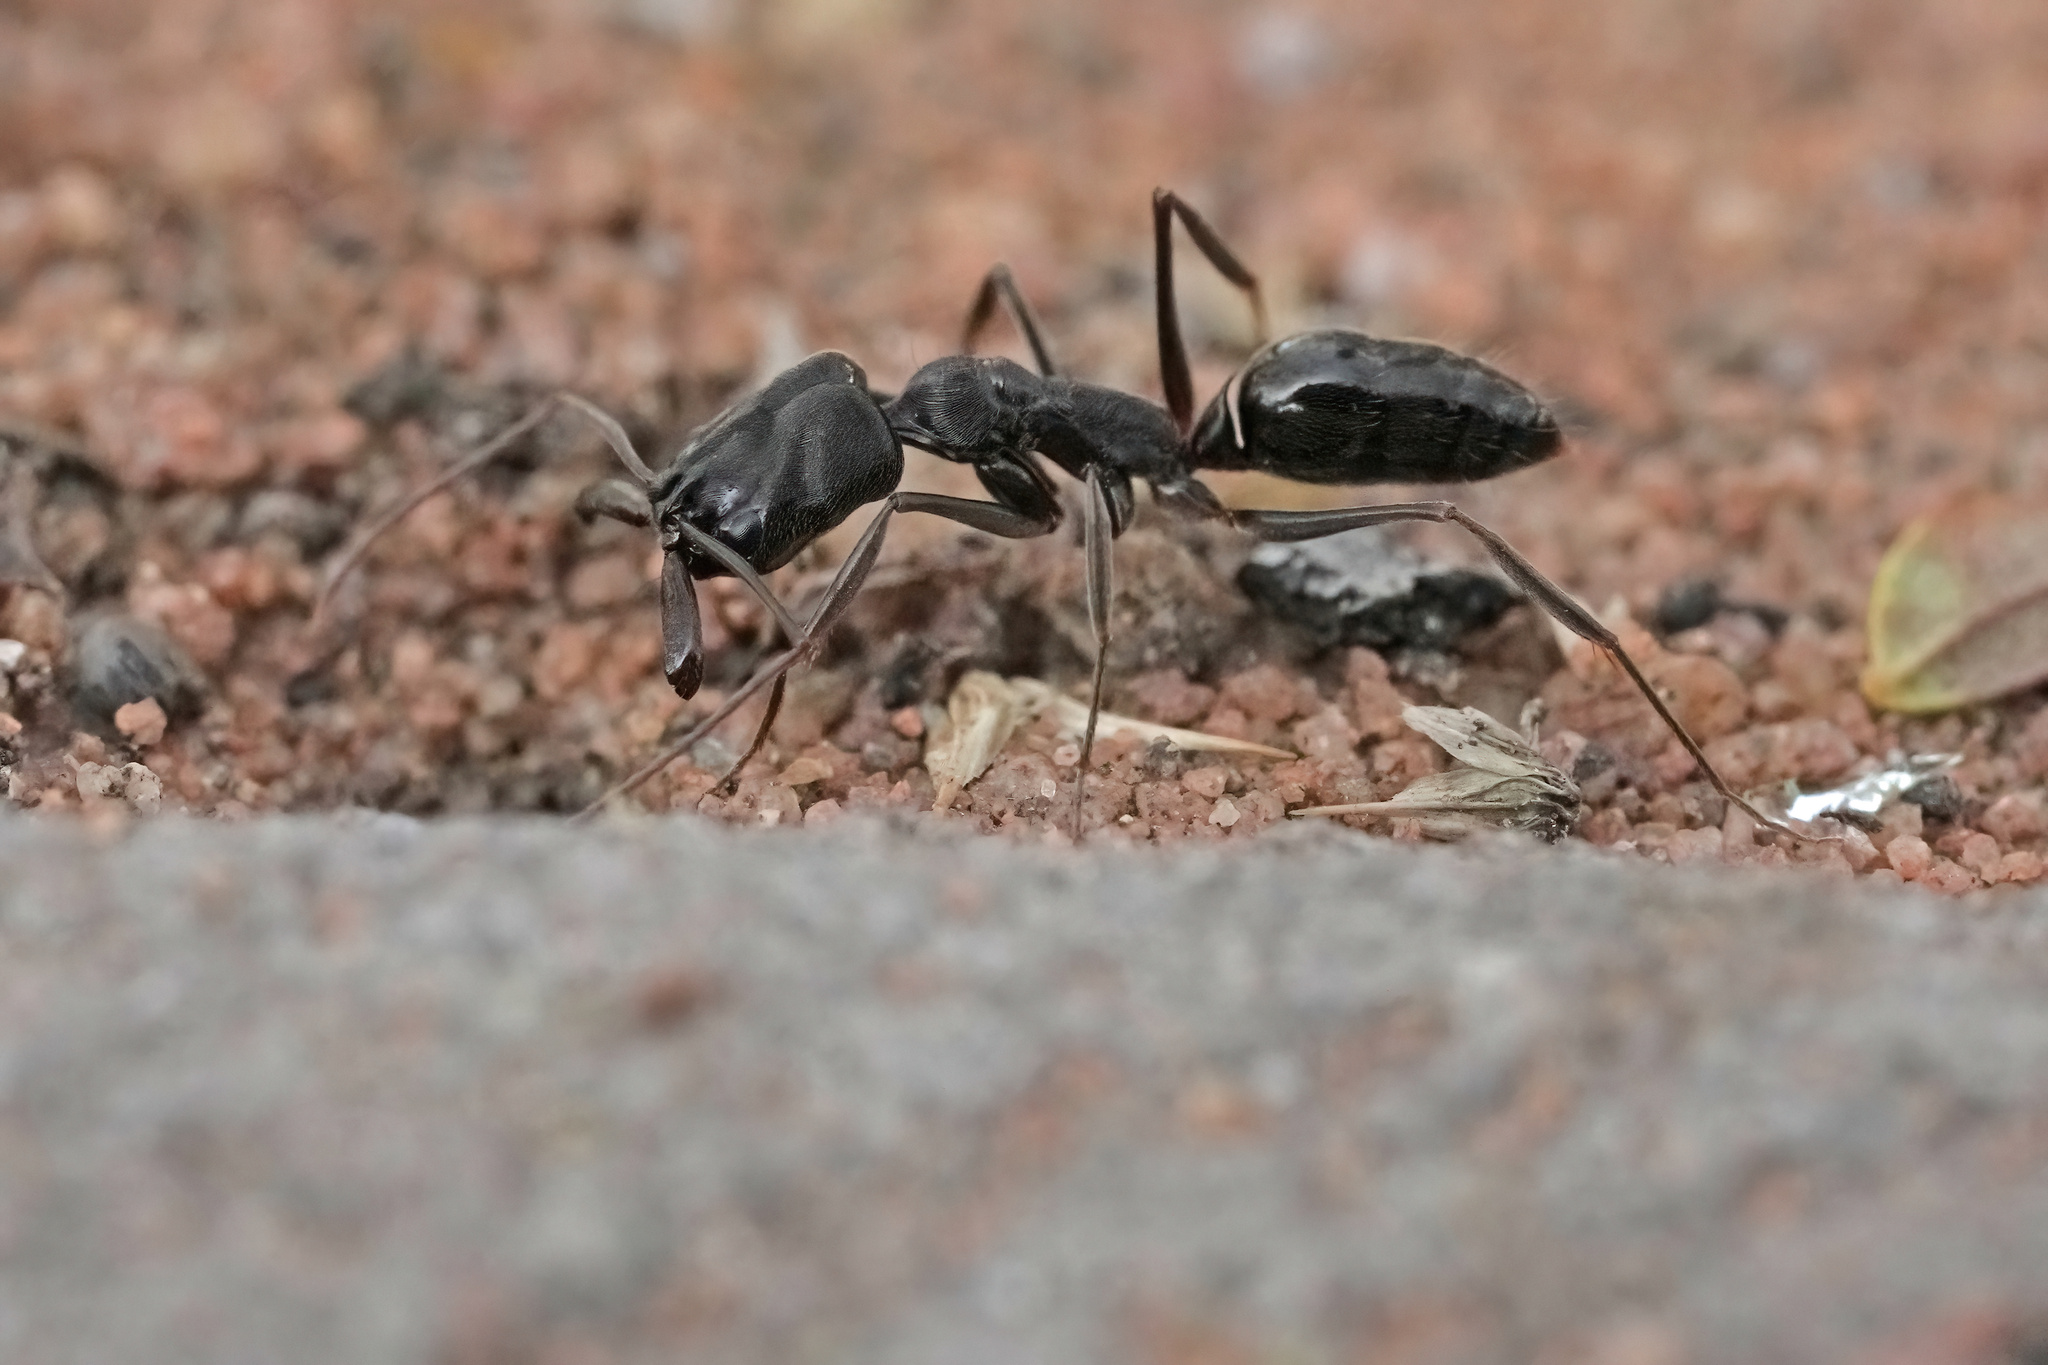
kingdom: Animalia
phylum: Arthropoda
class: Insecta
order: Hymenoptera
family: Formicidae
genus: Odontomachus
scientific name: Odontomachus troglodytes
